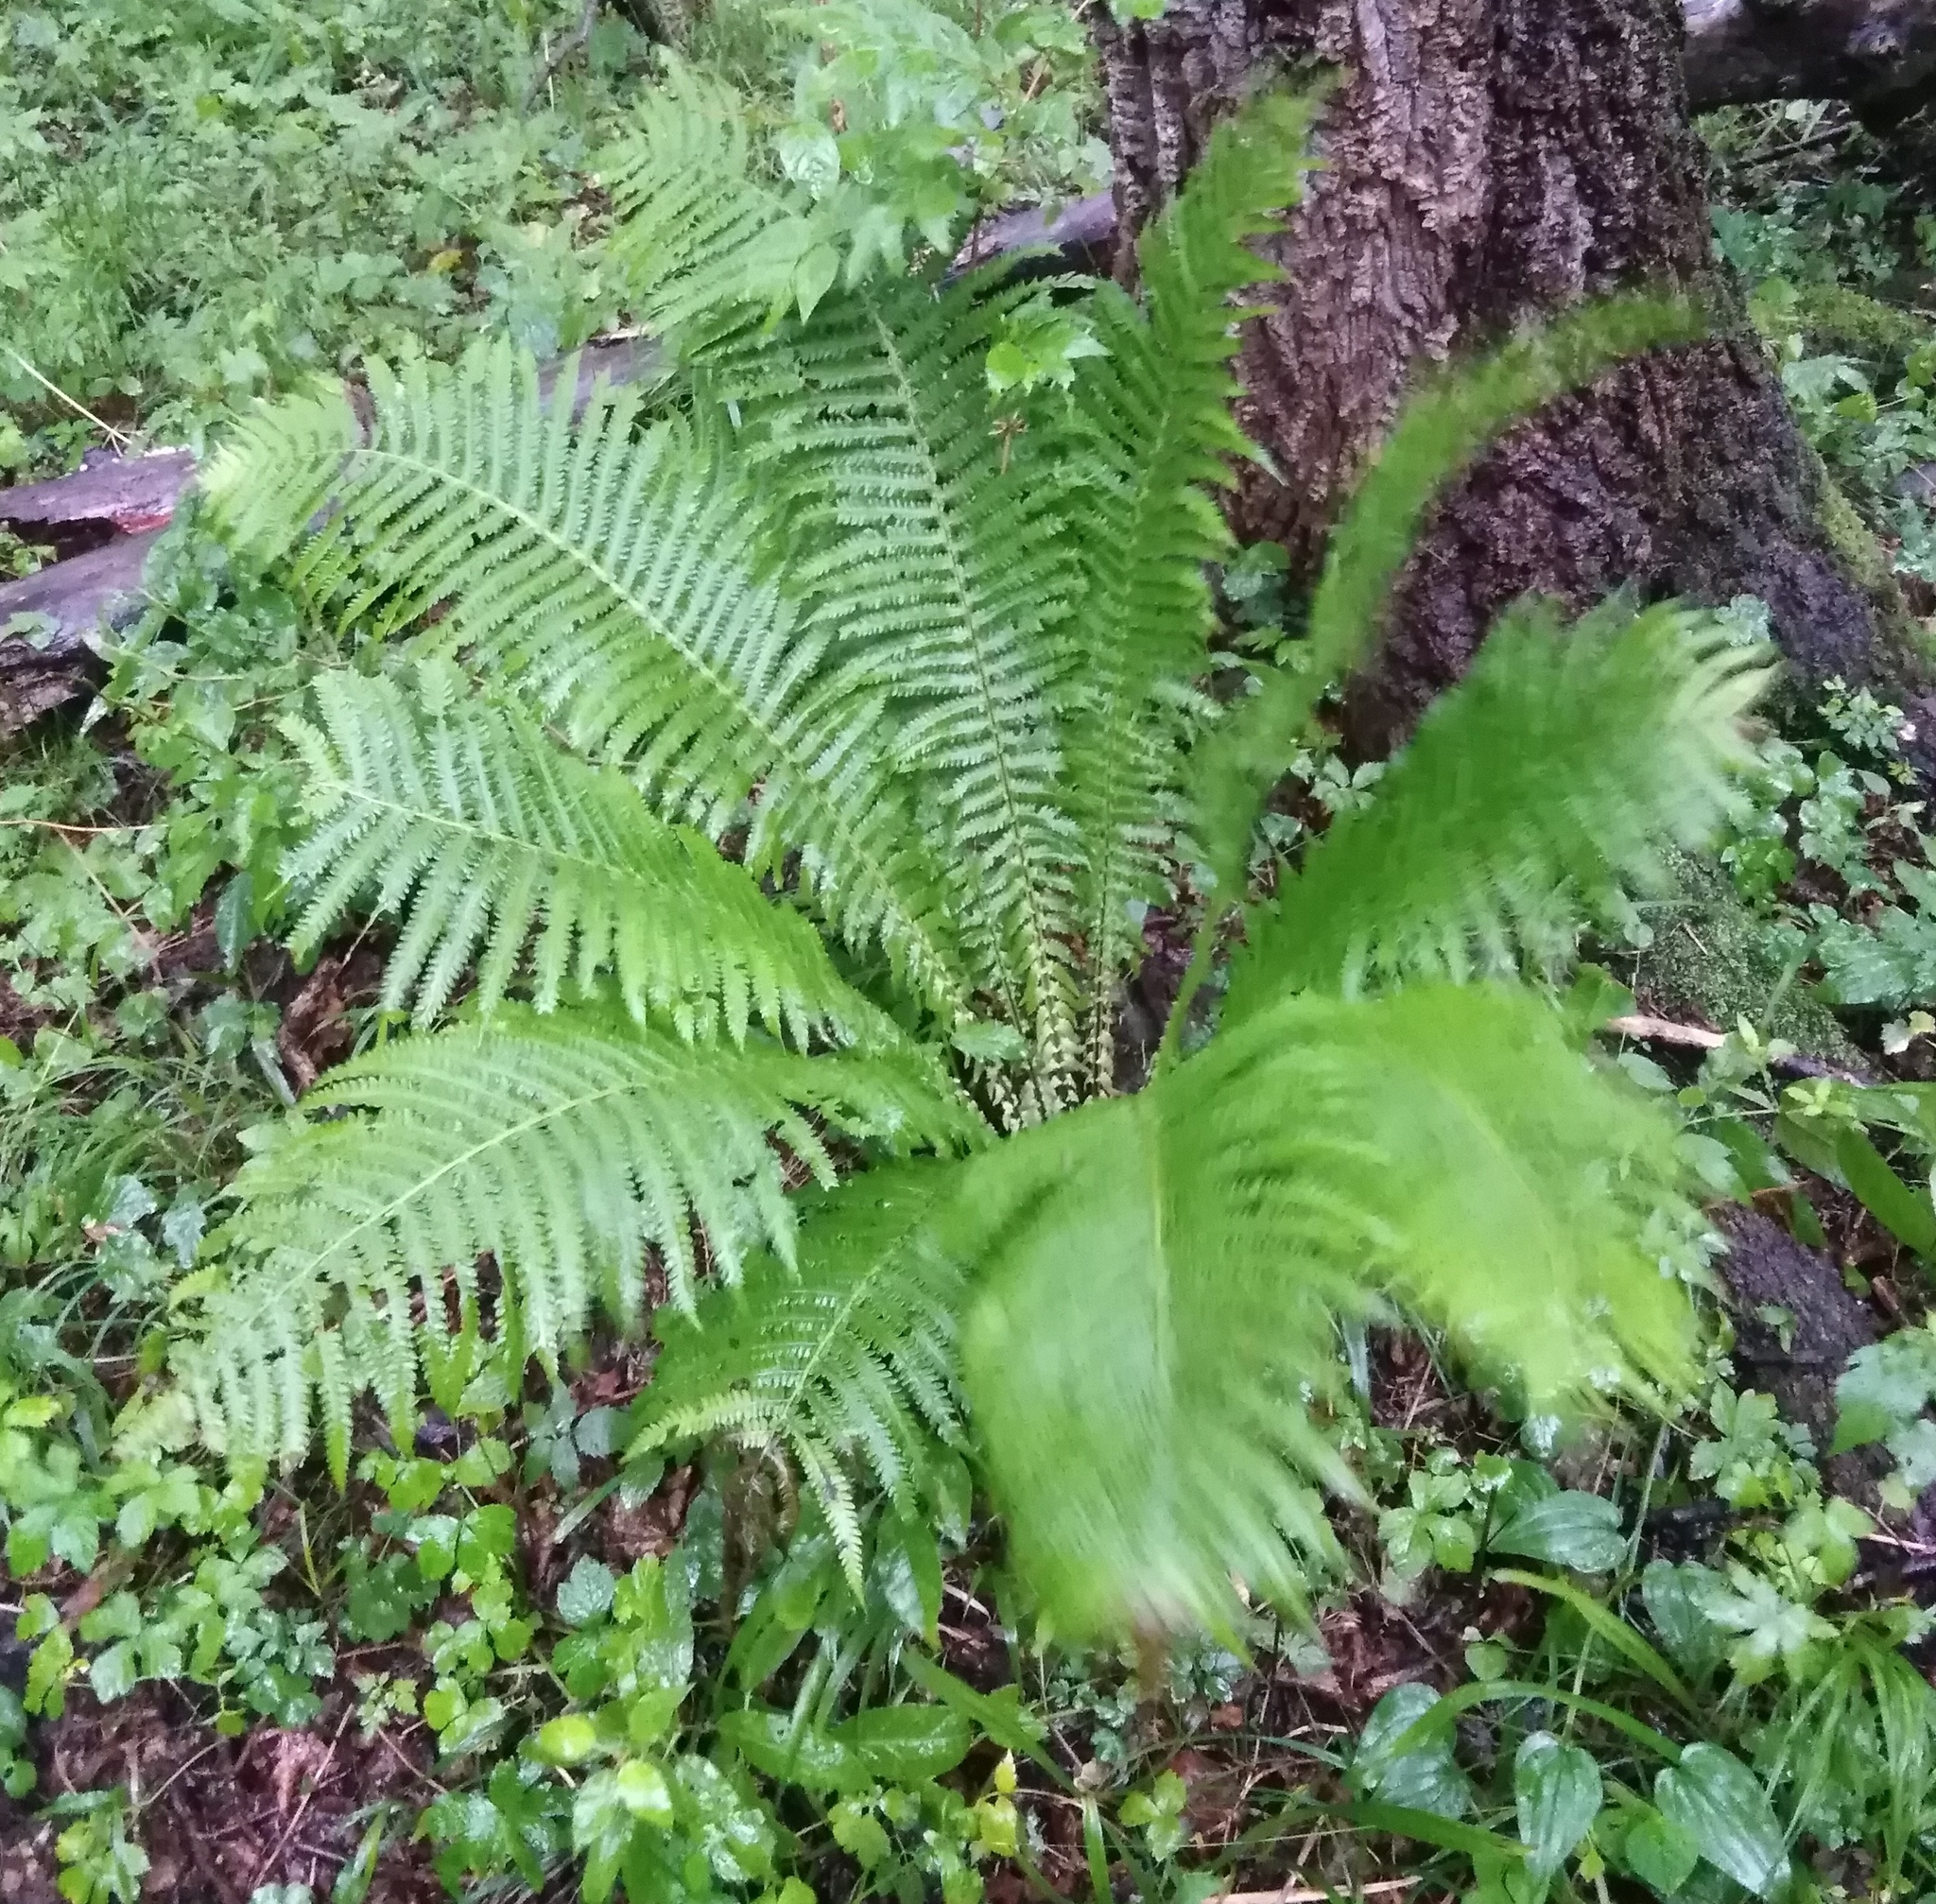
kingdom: Plantae
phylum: Tracheophyta
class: Polypodiopsida
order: Polypodiales
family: Onocleaceae
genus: Matteuccia
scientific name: Matteuccia struthiopteris
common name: Ostrich fern
